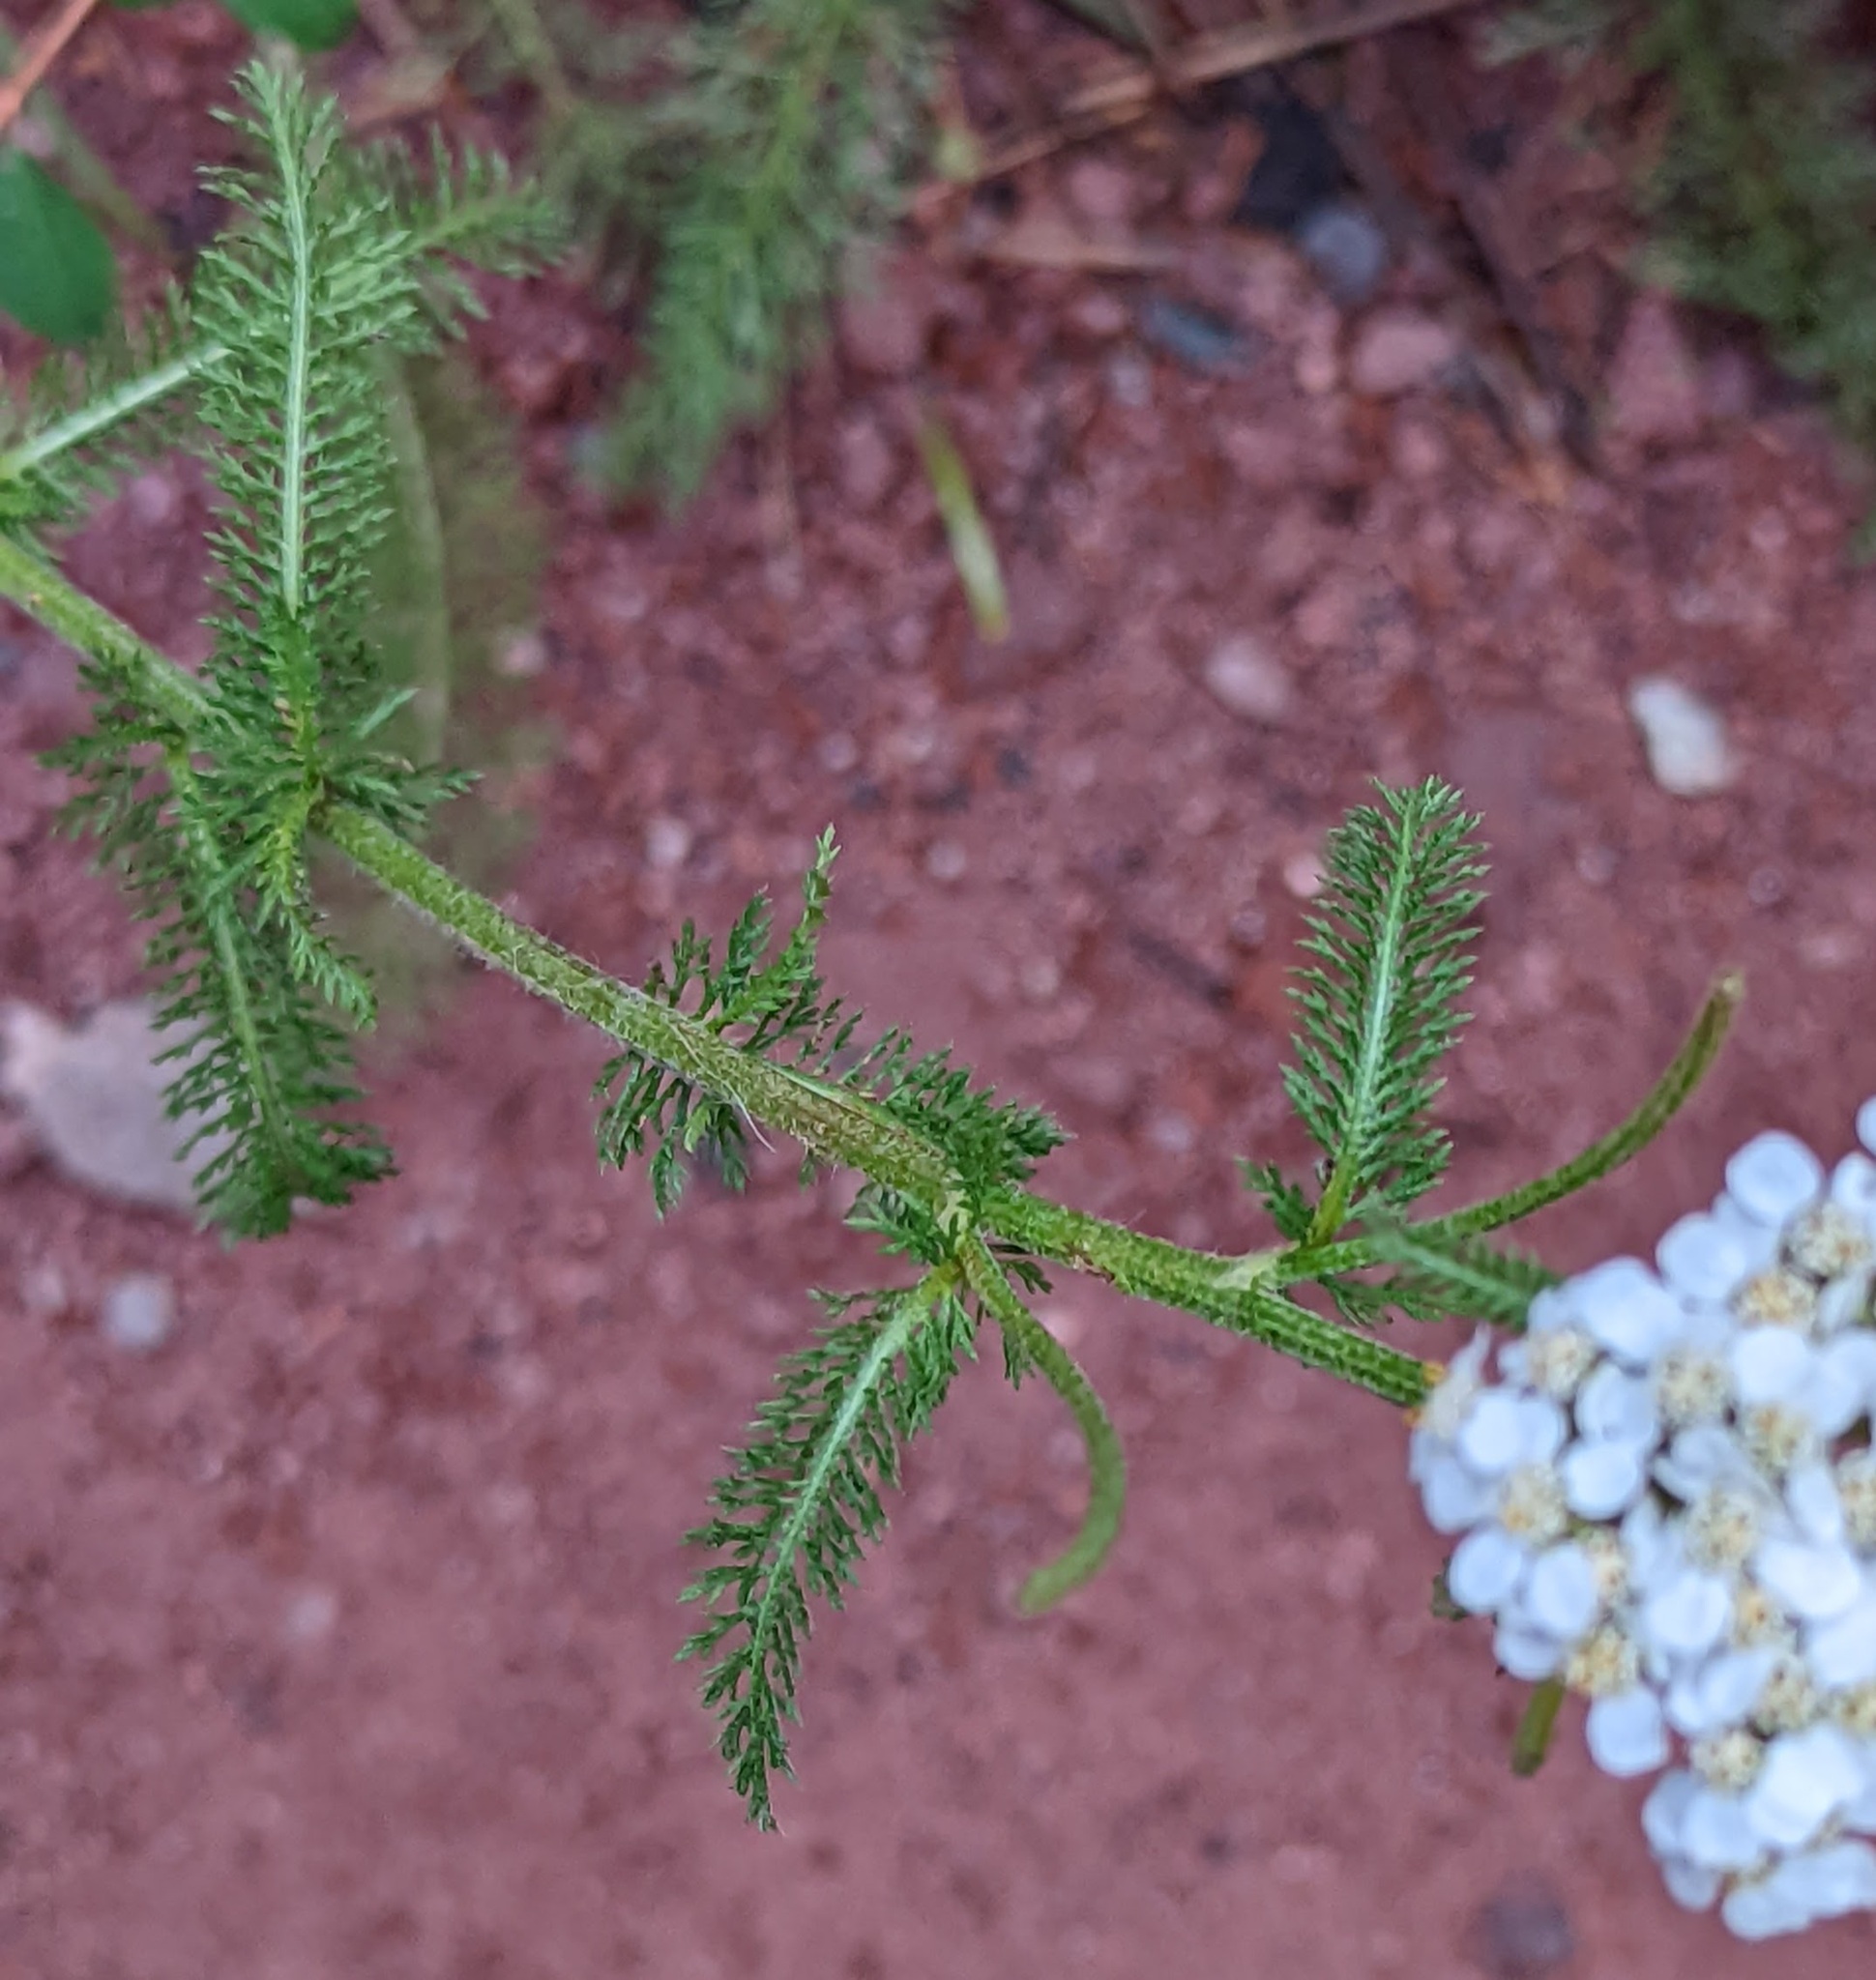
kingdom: Plantae
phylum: Tracheophyta
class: Magnoliopsida
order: Asterales
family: Asteraceae
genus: Achillea
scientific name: Achillea millefolium
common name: Yarrow
